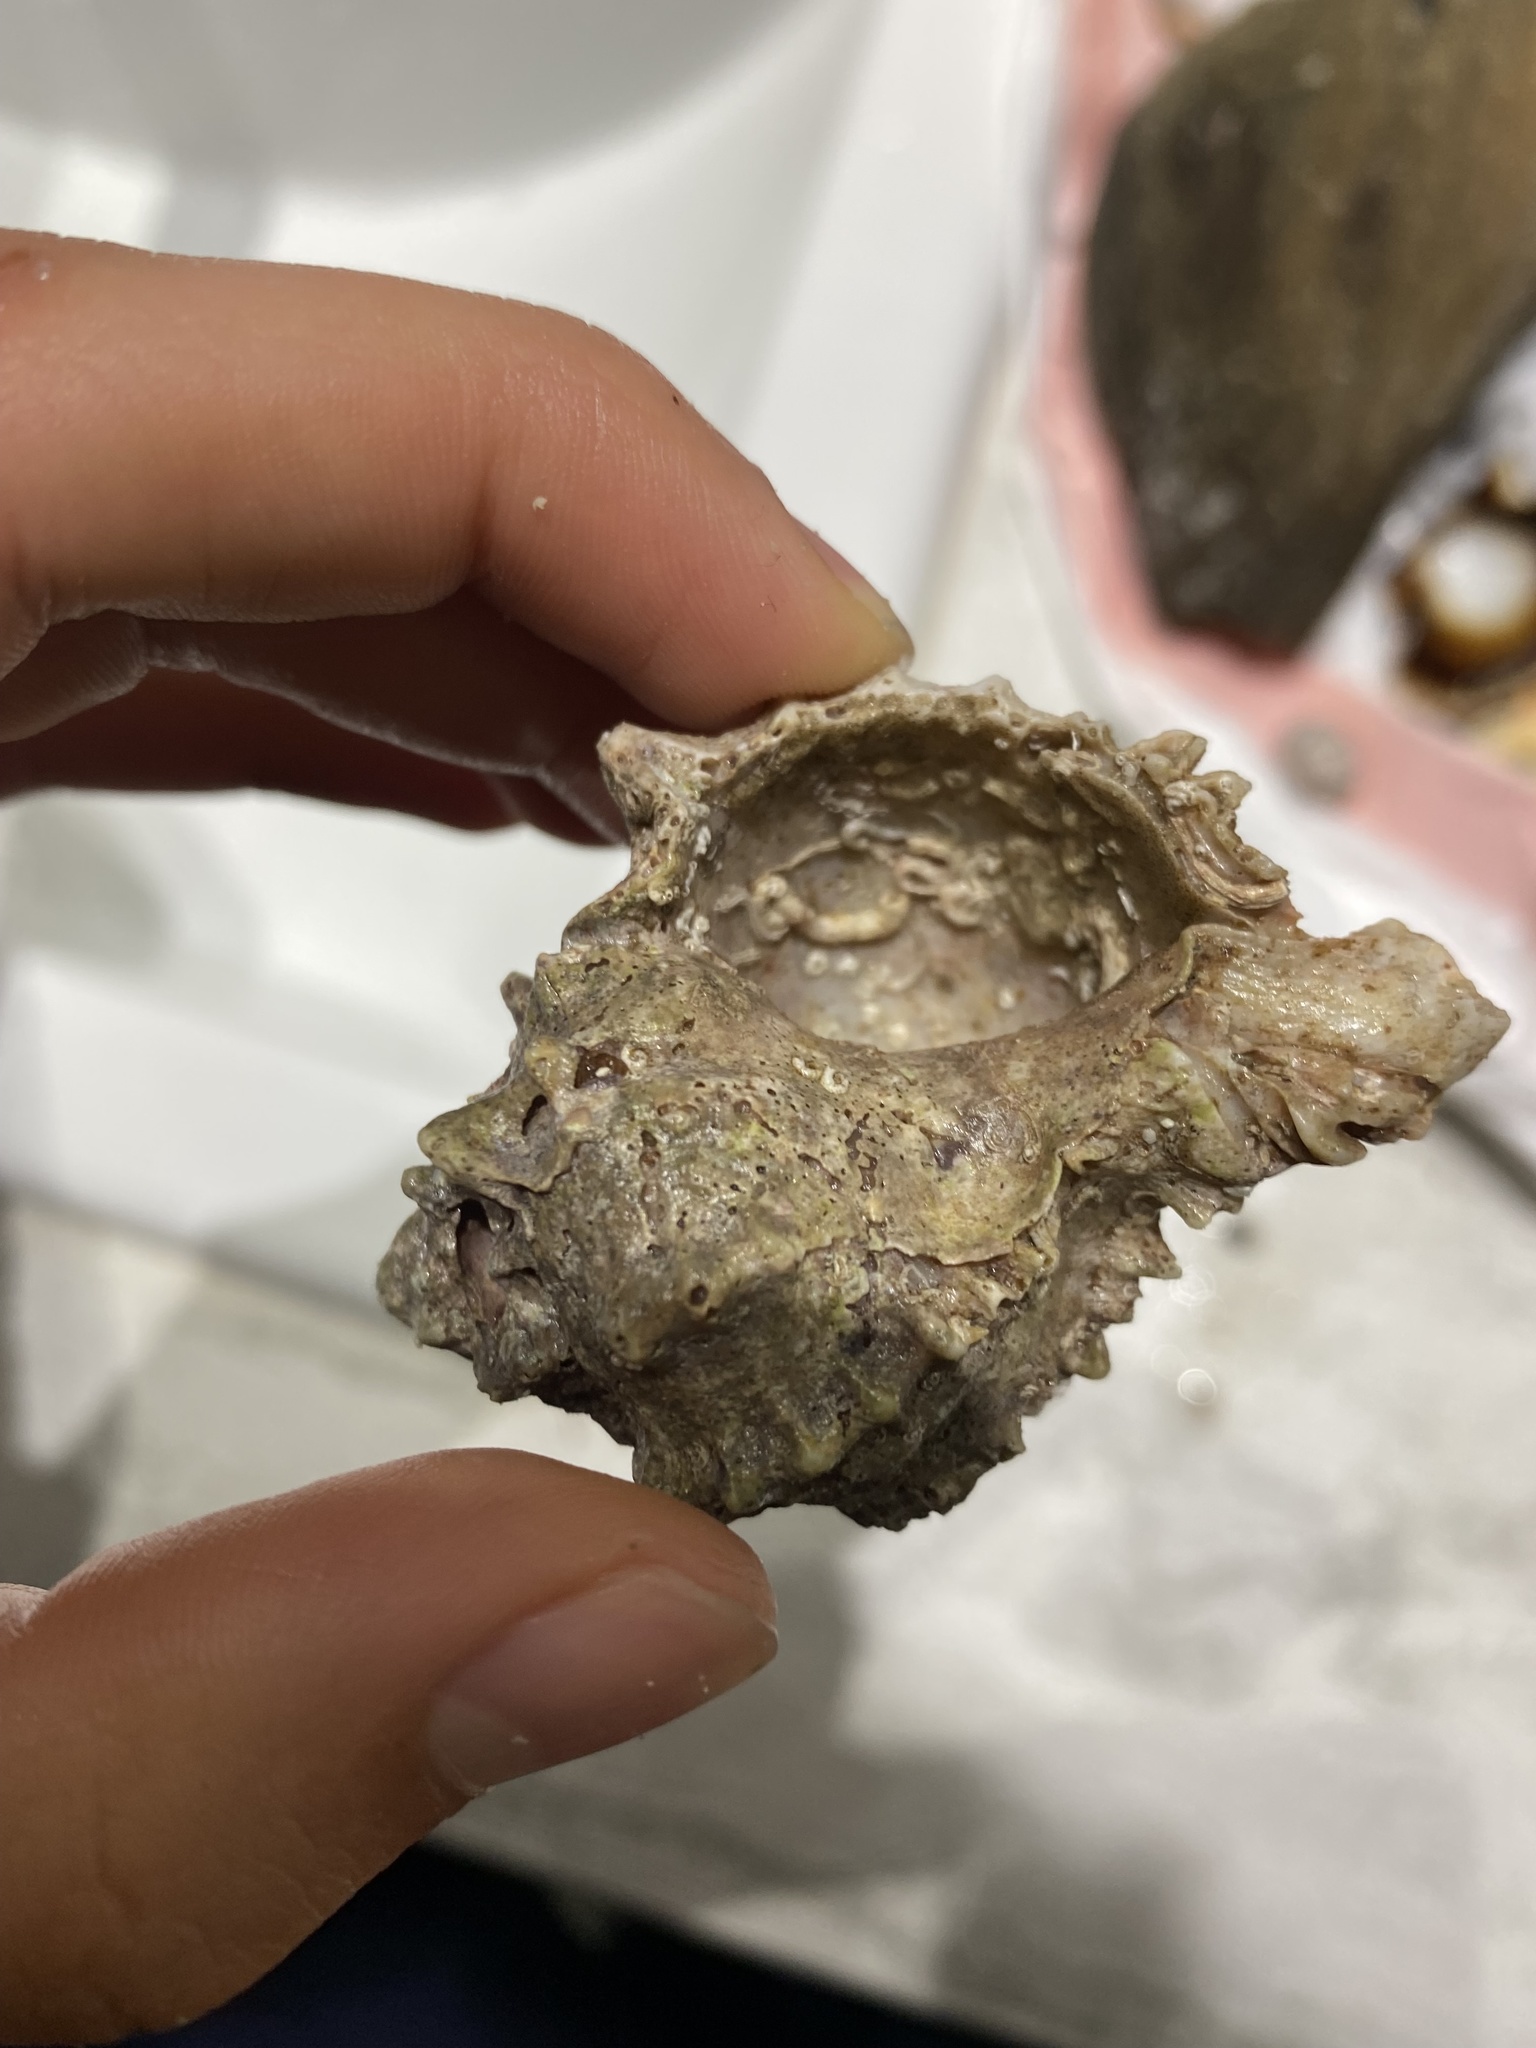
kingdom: Animalia
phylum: Mollusca
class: Gastropoda
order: Neogastropoda
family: Muricidae
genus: Phyllonotus
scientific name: Phyllonotus erythrostomus
